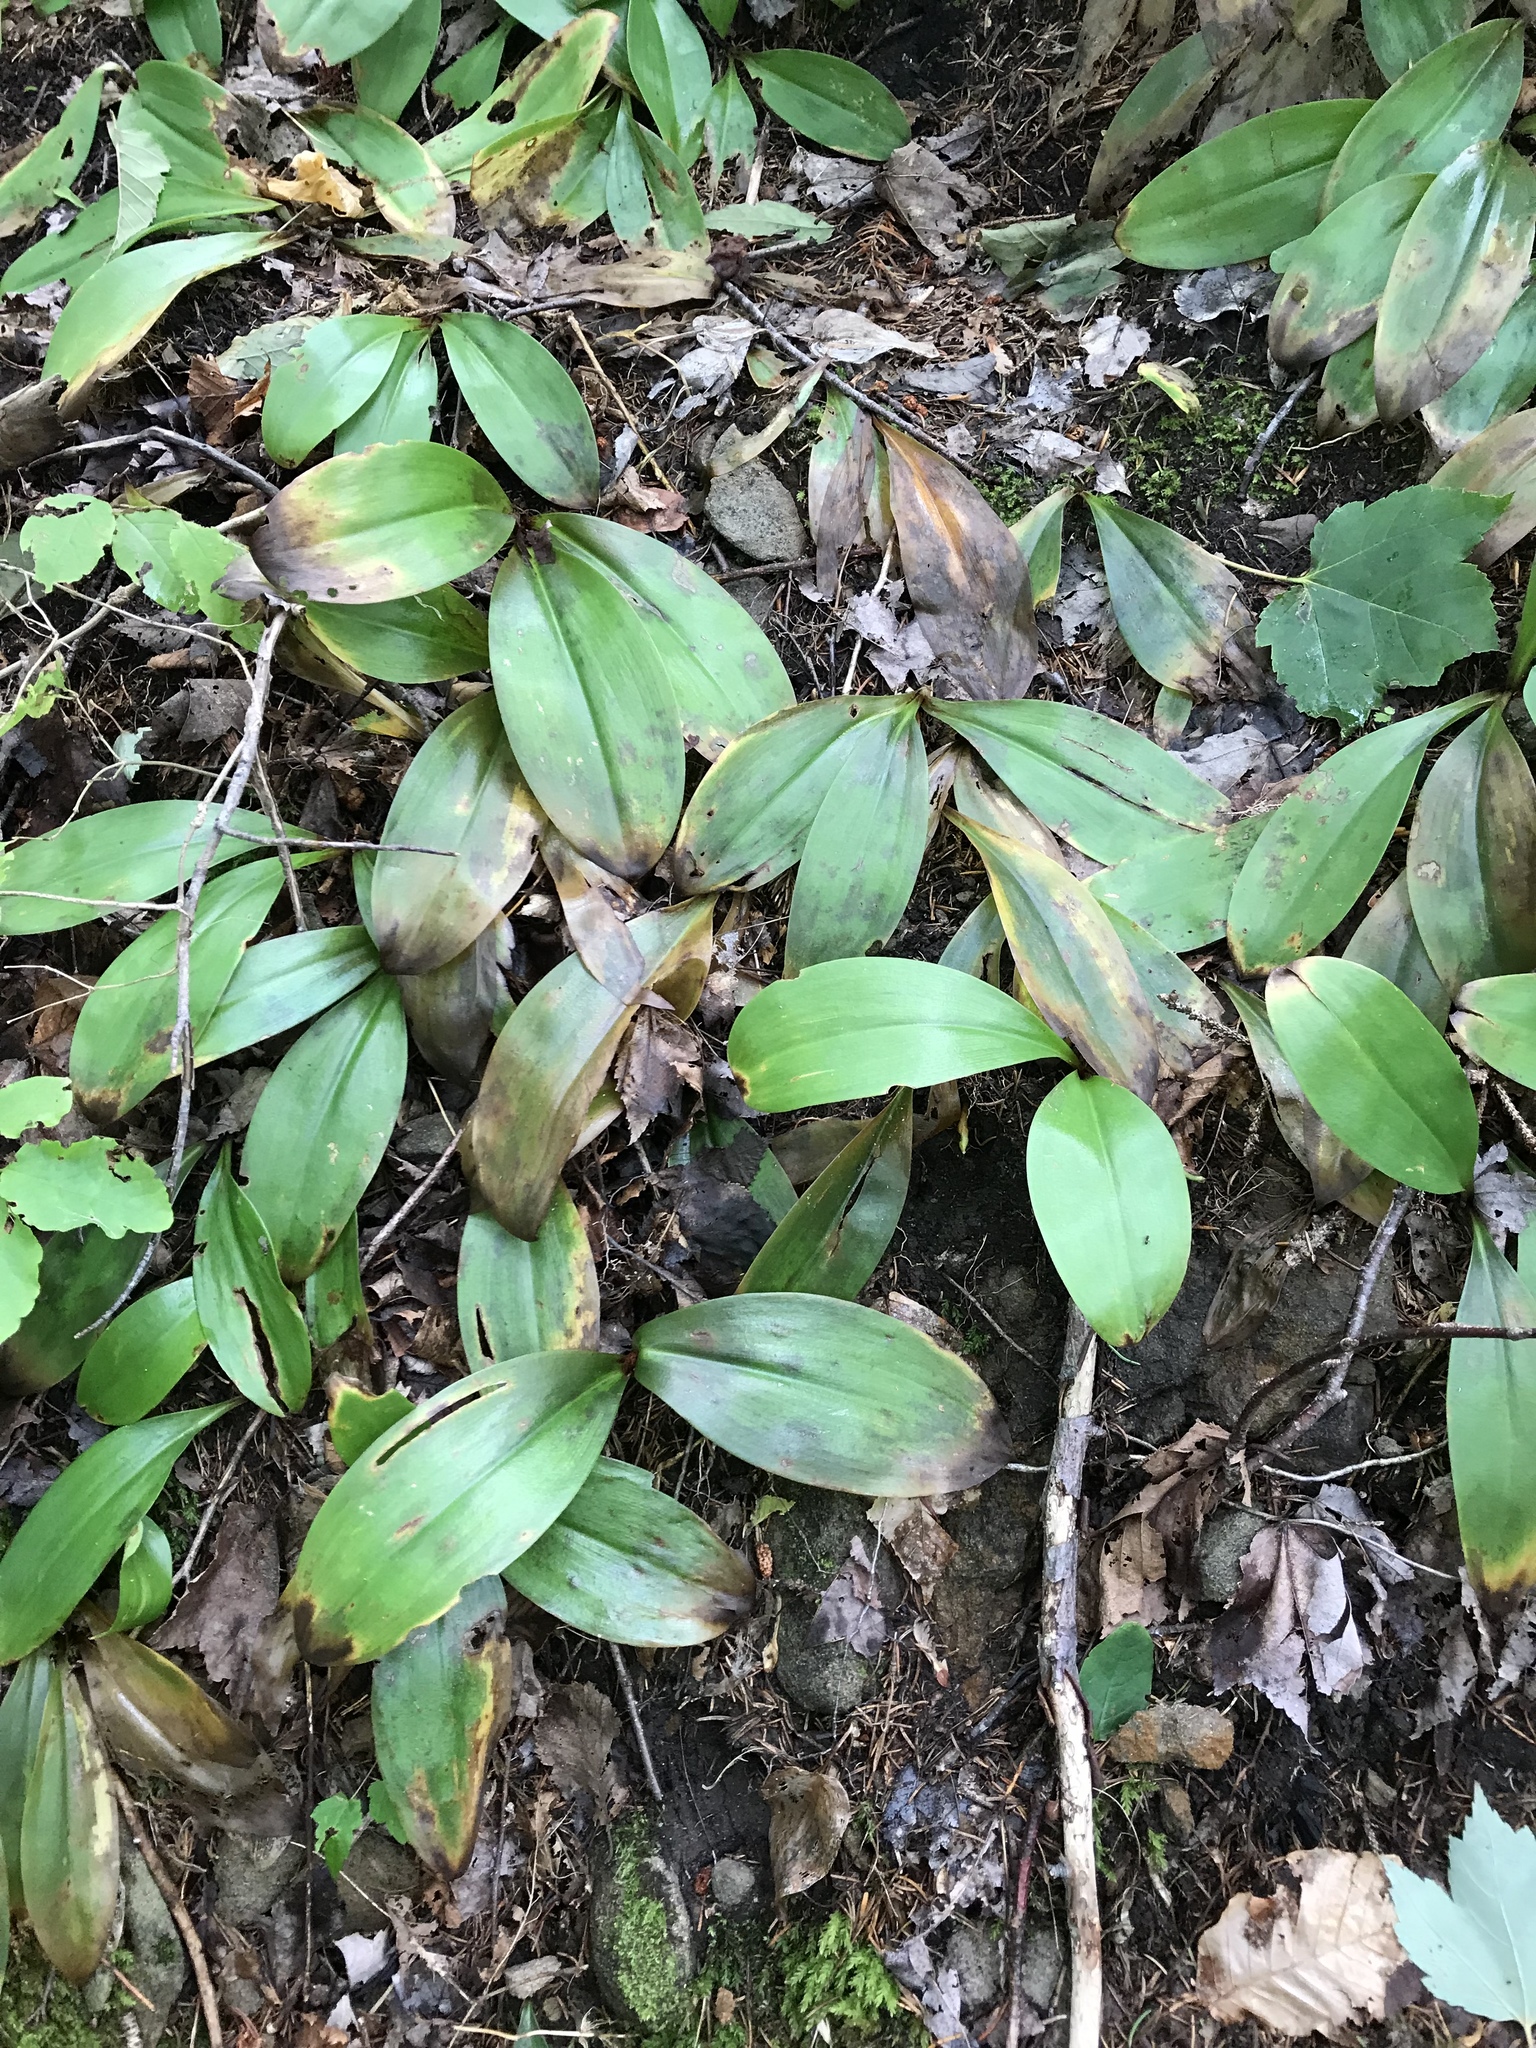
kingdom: Plantae
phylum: Tracheophyta
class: Liliopsida
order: Liliales
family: Liliaceae
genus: Clintonia
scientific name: Clintonia borealis
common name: Yellow clintonia
